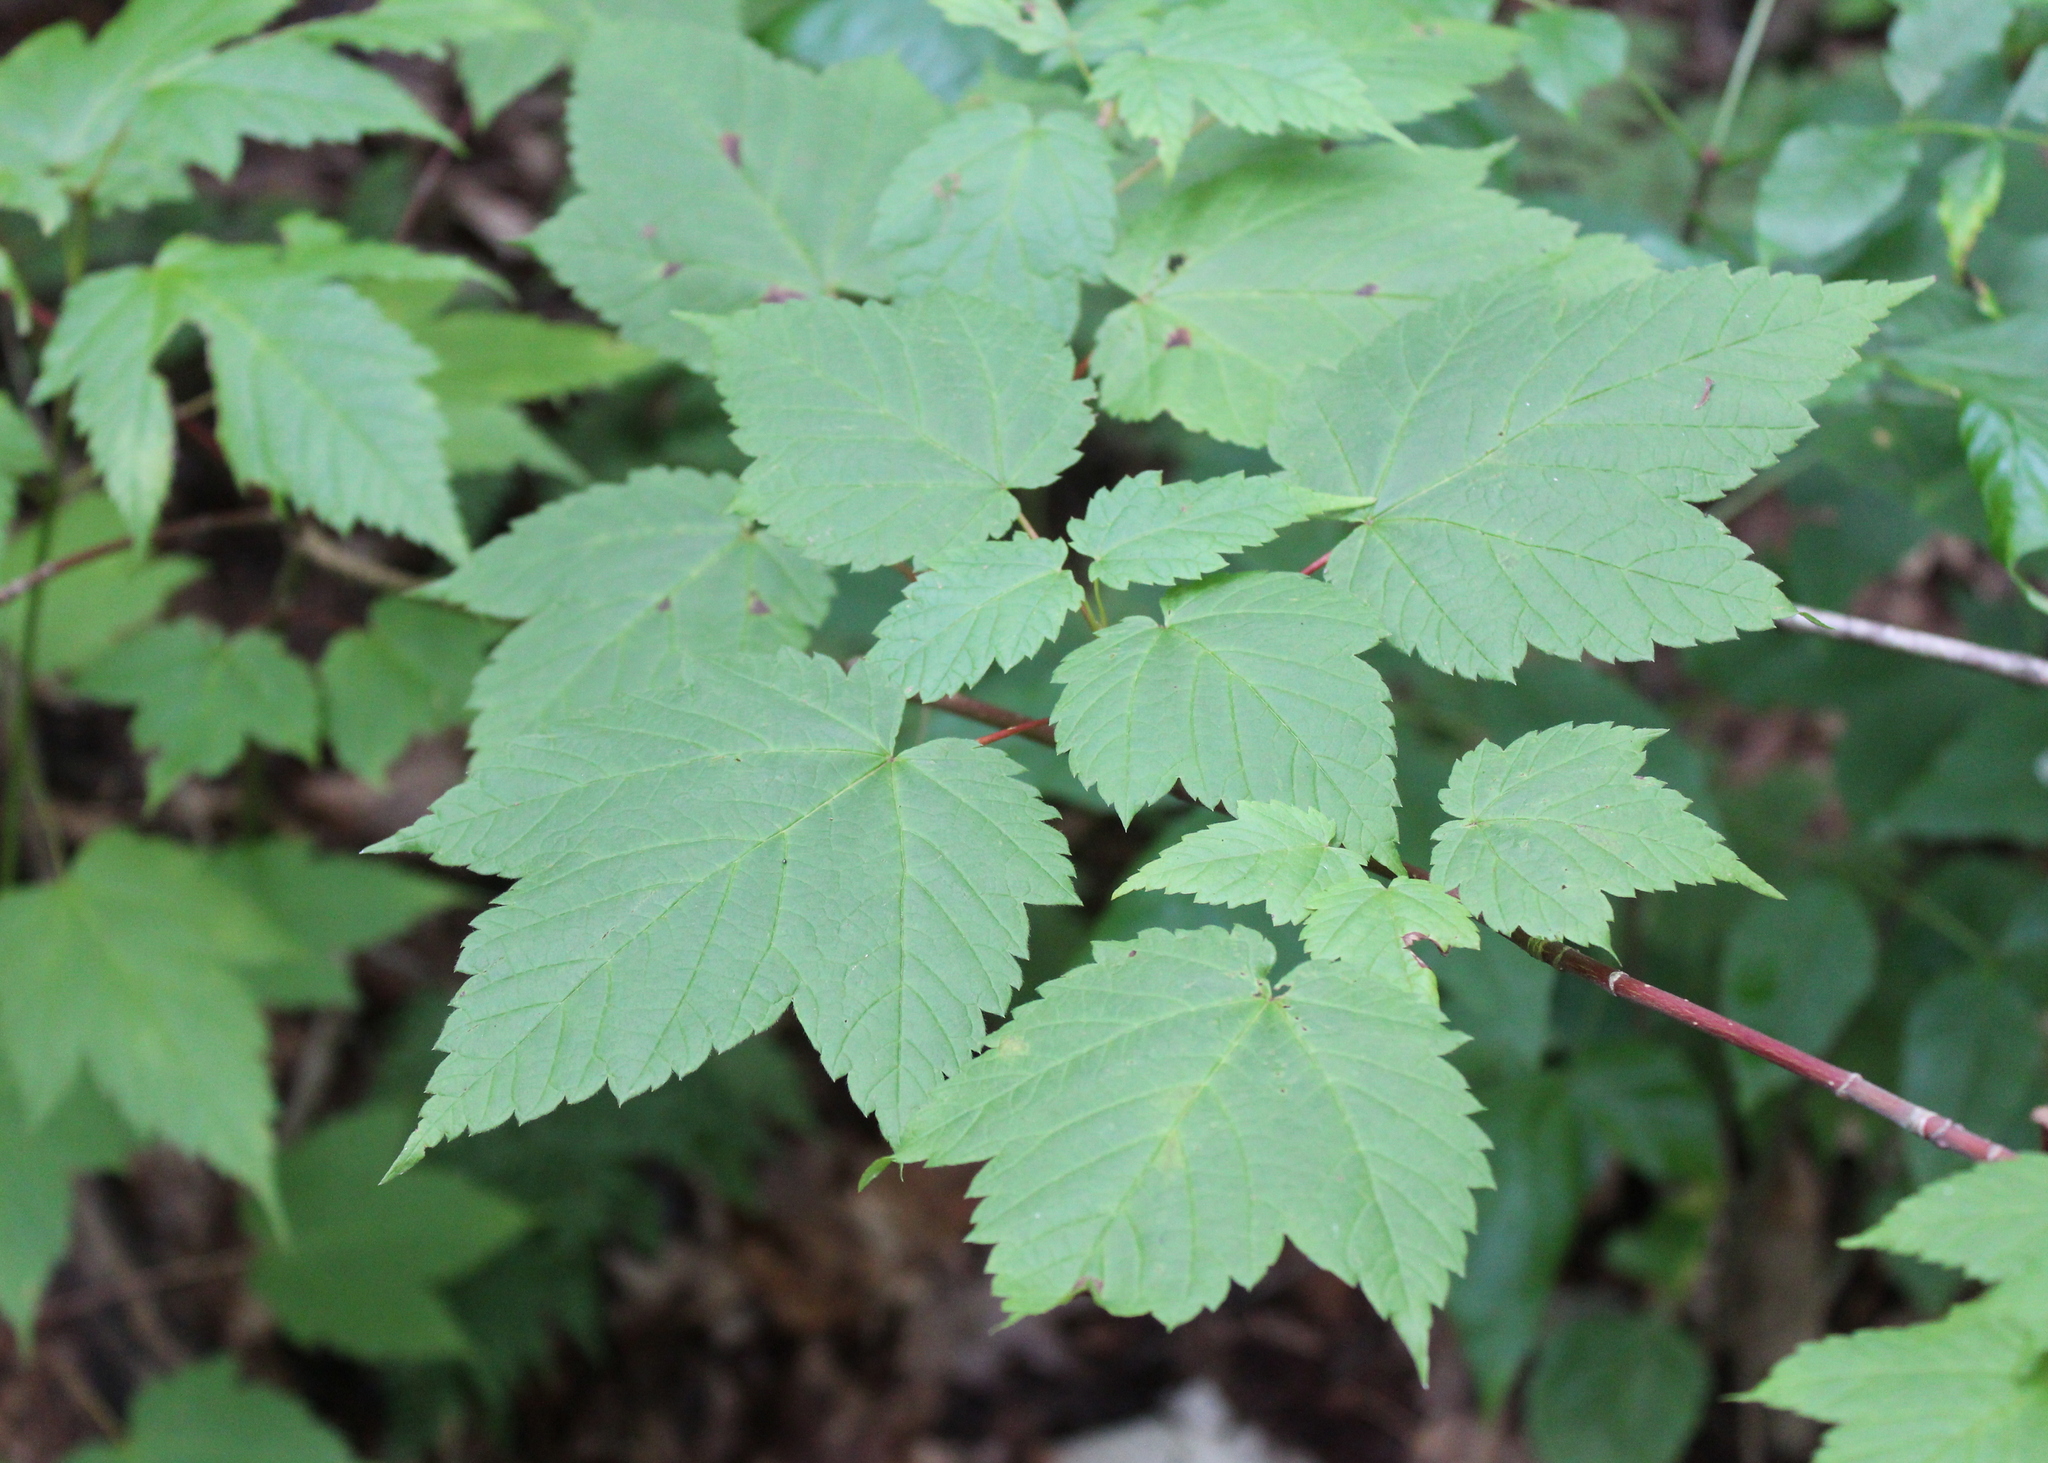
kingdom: Plantae
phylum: Tracheophyta
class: Magnoliopsida
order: Sapindales
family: Sapindaceae
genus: Acer
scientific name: Acer spicatum
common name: Mountain maple
